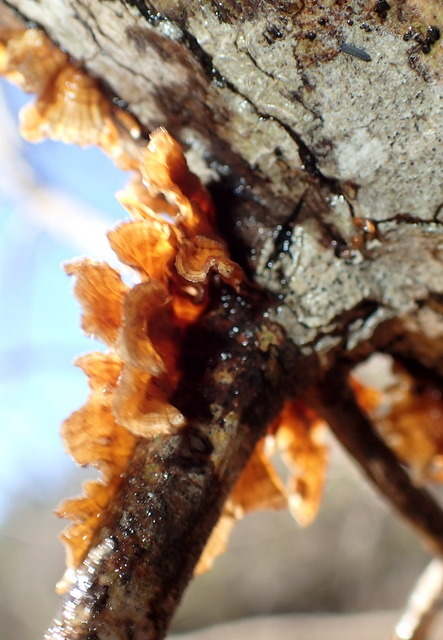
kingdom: Fungi
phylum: Basidiomycota
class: Agaricomycetes
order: Russulales
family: Stereaceae
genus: Stereum
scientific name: Stereum complicatum
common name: Crowded parchment
